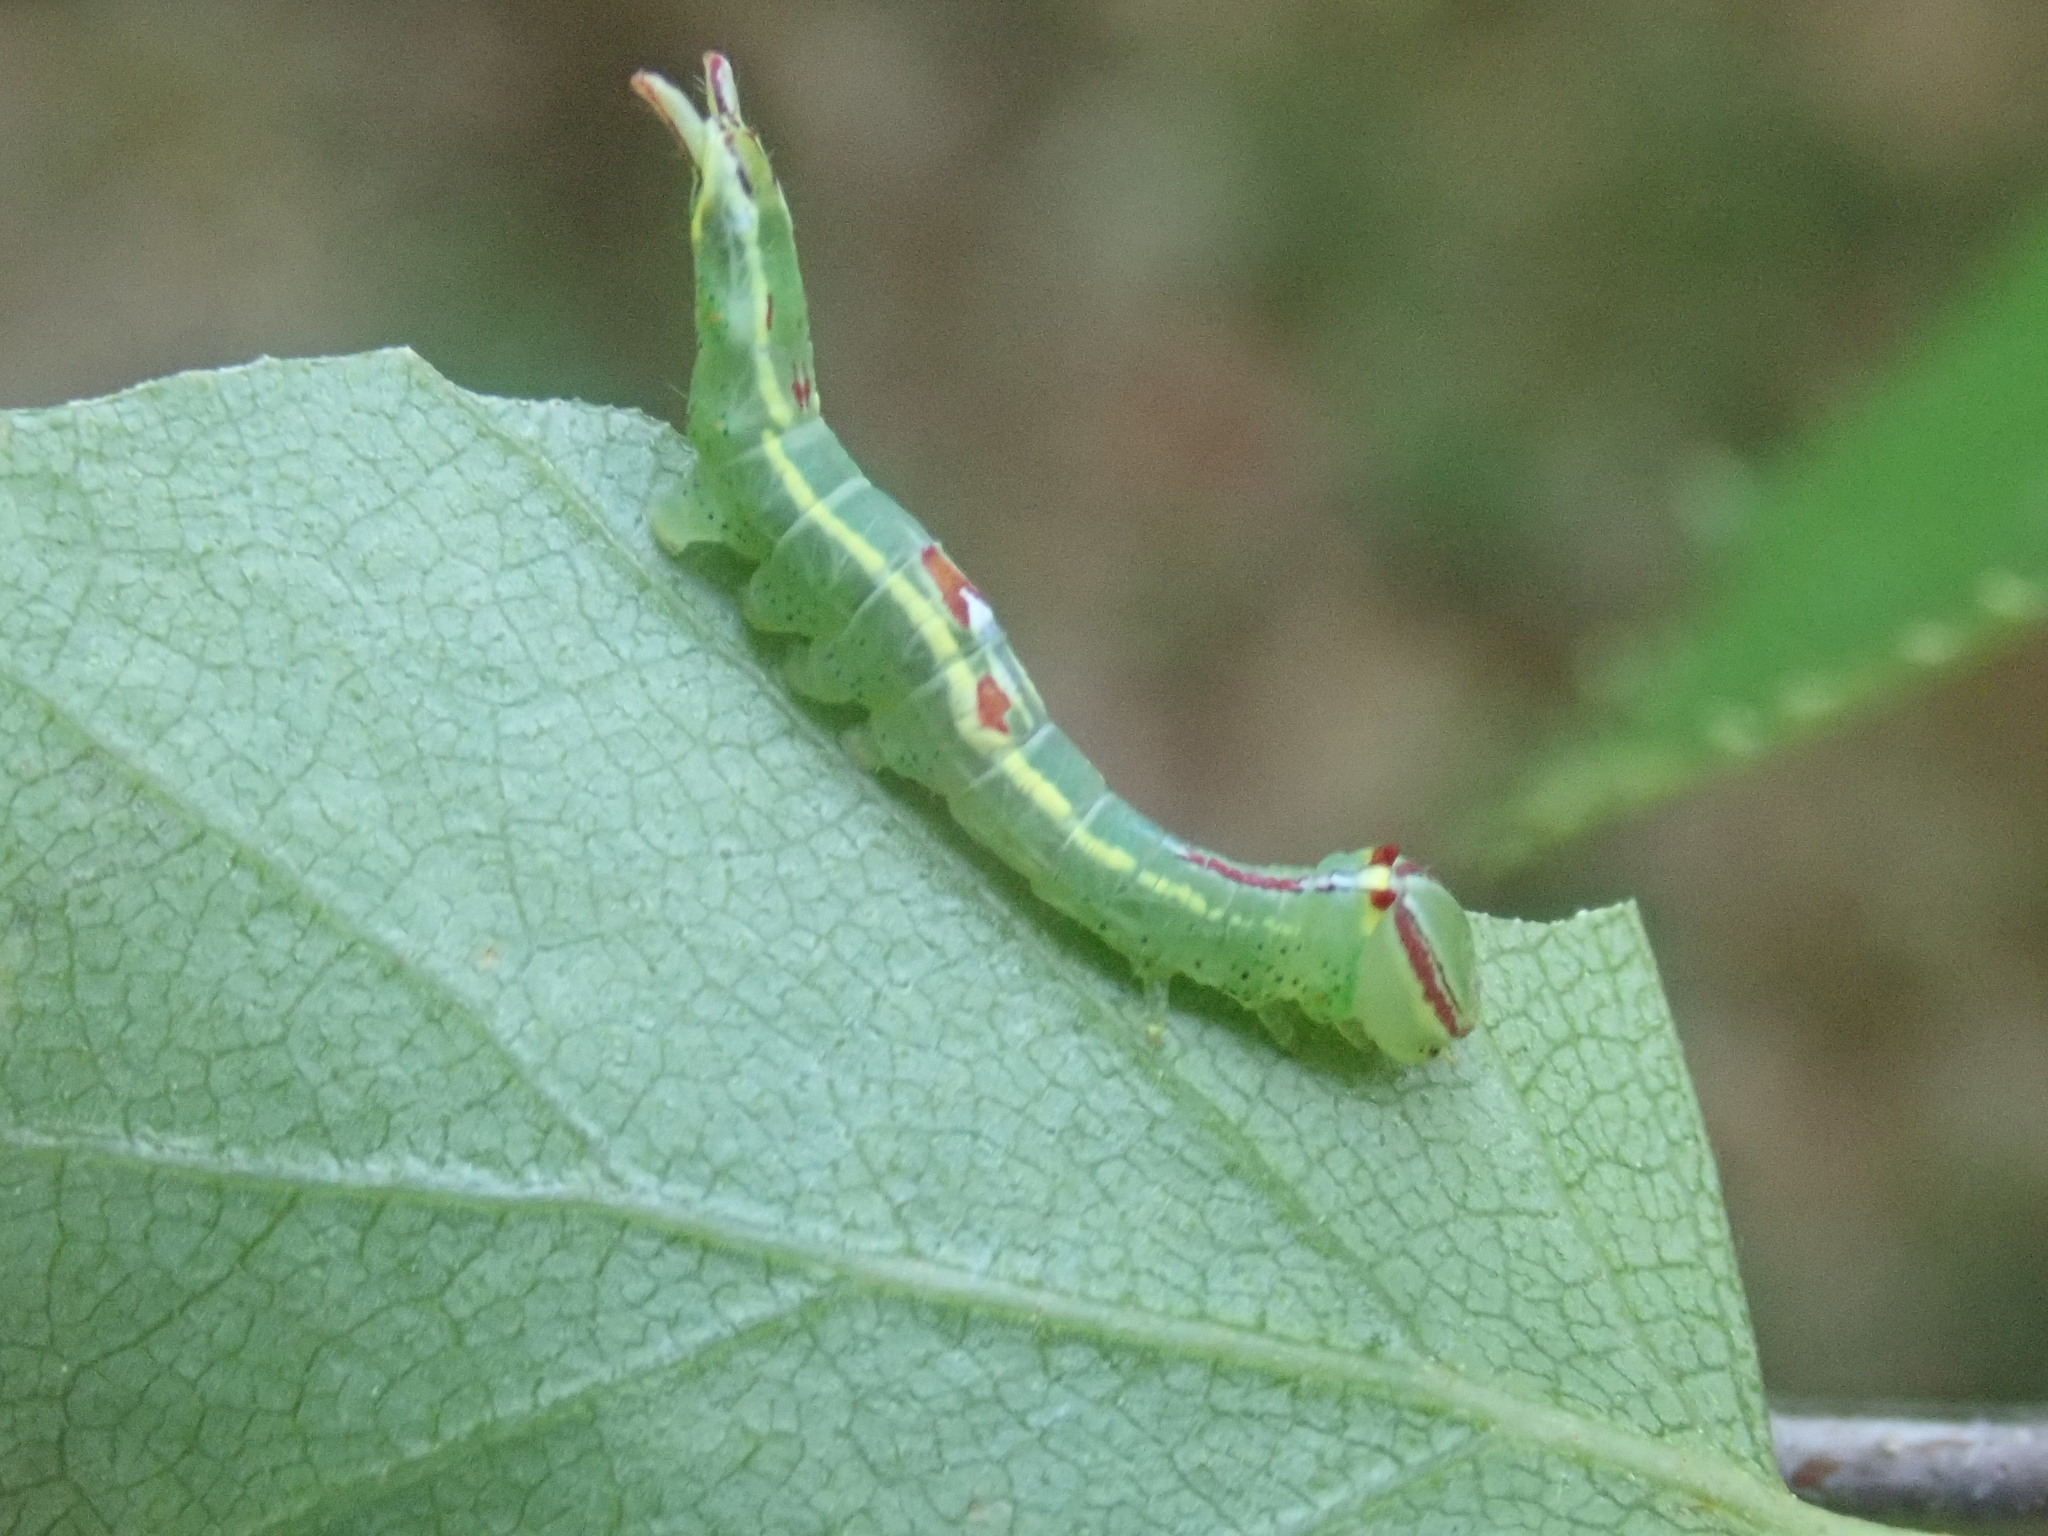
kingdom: Animalia
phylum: Arthropoda
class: Insecta
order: Lepidoptera
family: Notodontidae
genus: Disphragis
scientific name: Disphragis Cecrita guttivitta
